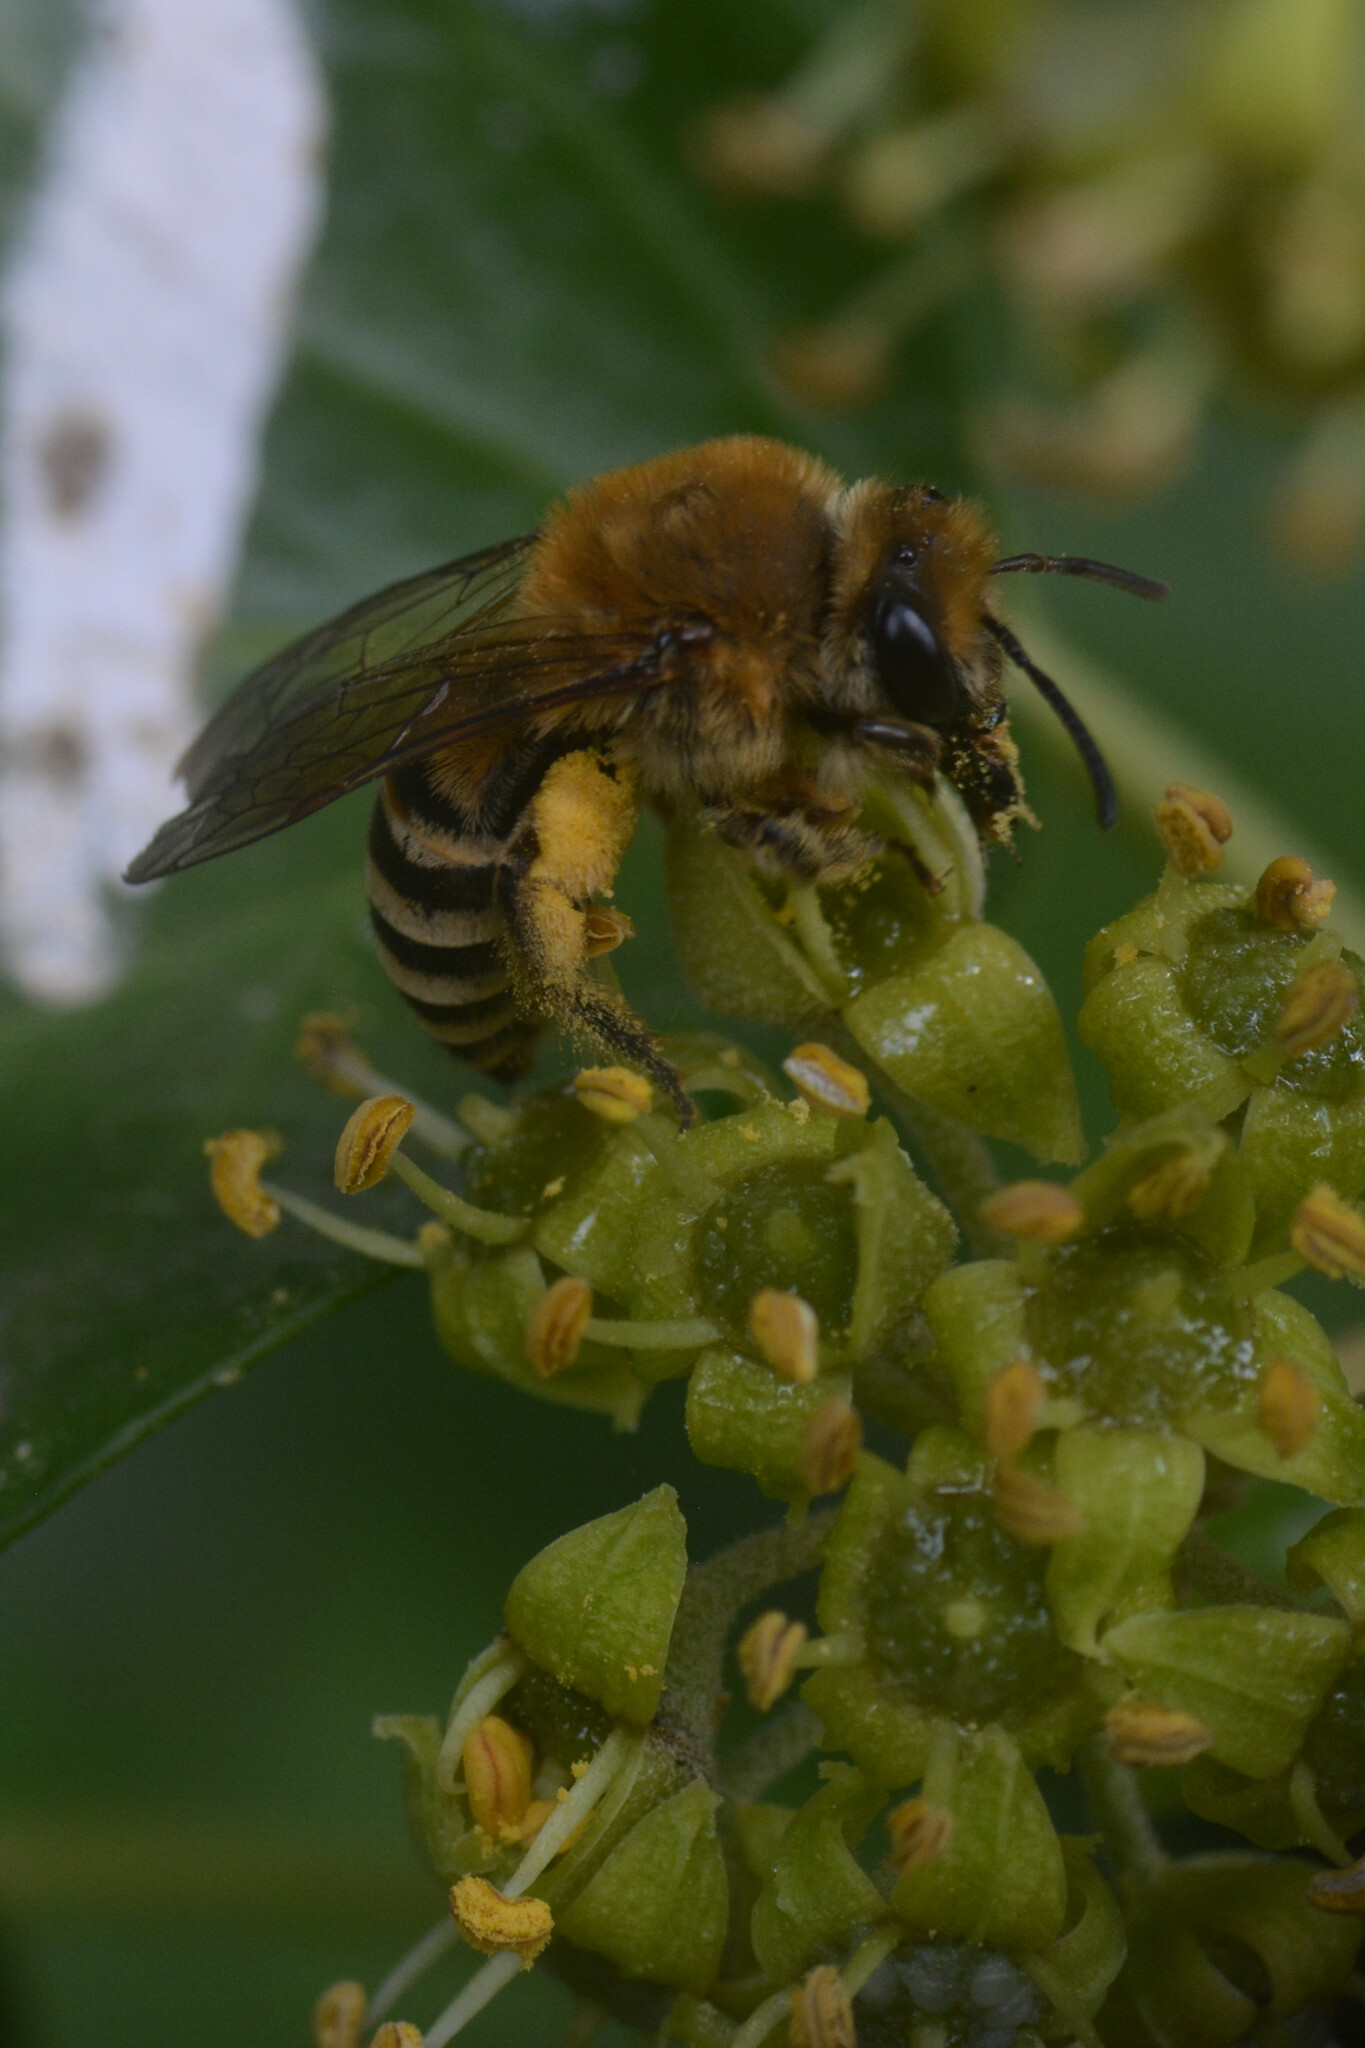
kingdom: Animalia
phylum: Arthropoda
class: Insecta
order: Hymenoptera
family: Colletidae
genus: Colletes
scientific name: Colletes hederae
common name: Ivy bee
